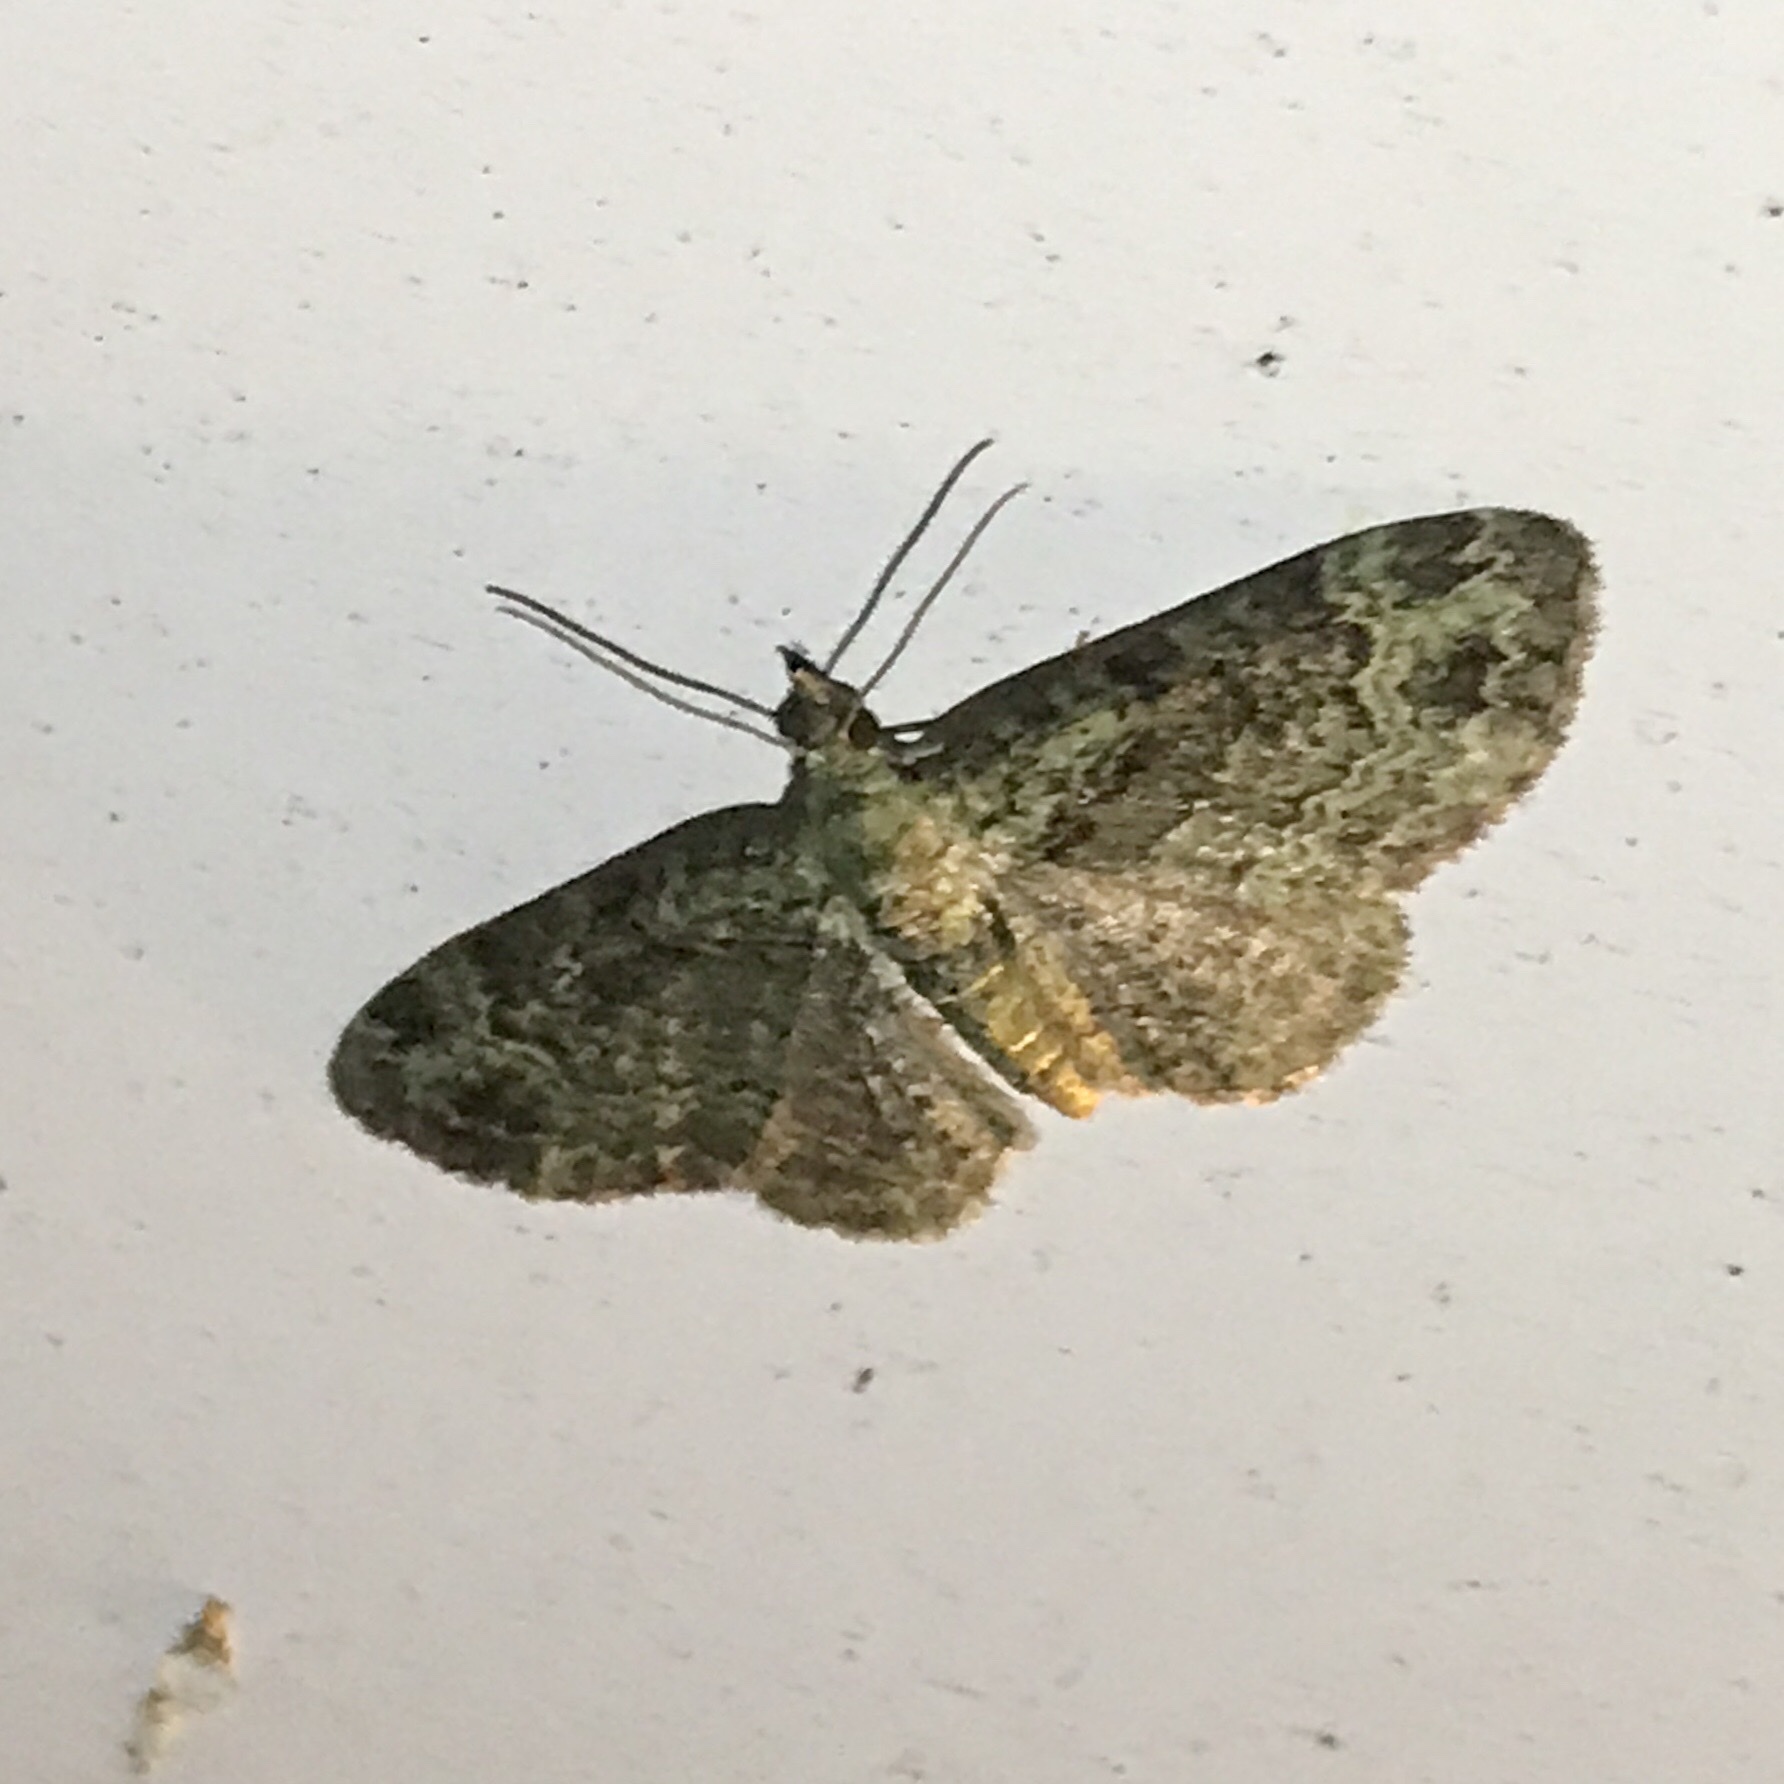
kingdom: Animalia
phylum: Arthropoda
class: Insecta
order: Lepidoptera
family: Geometridae
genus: Pasiphila
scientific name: Pasiphila rectangulata
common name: Green pug
